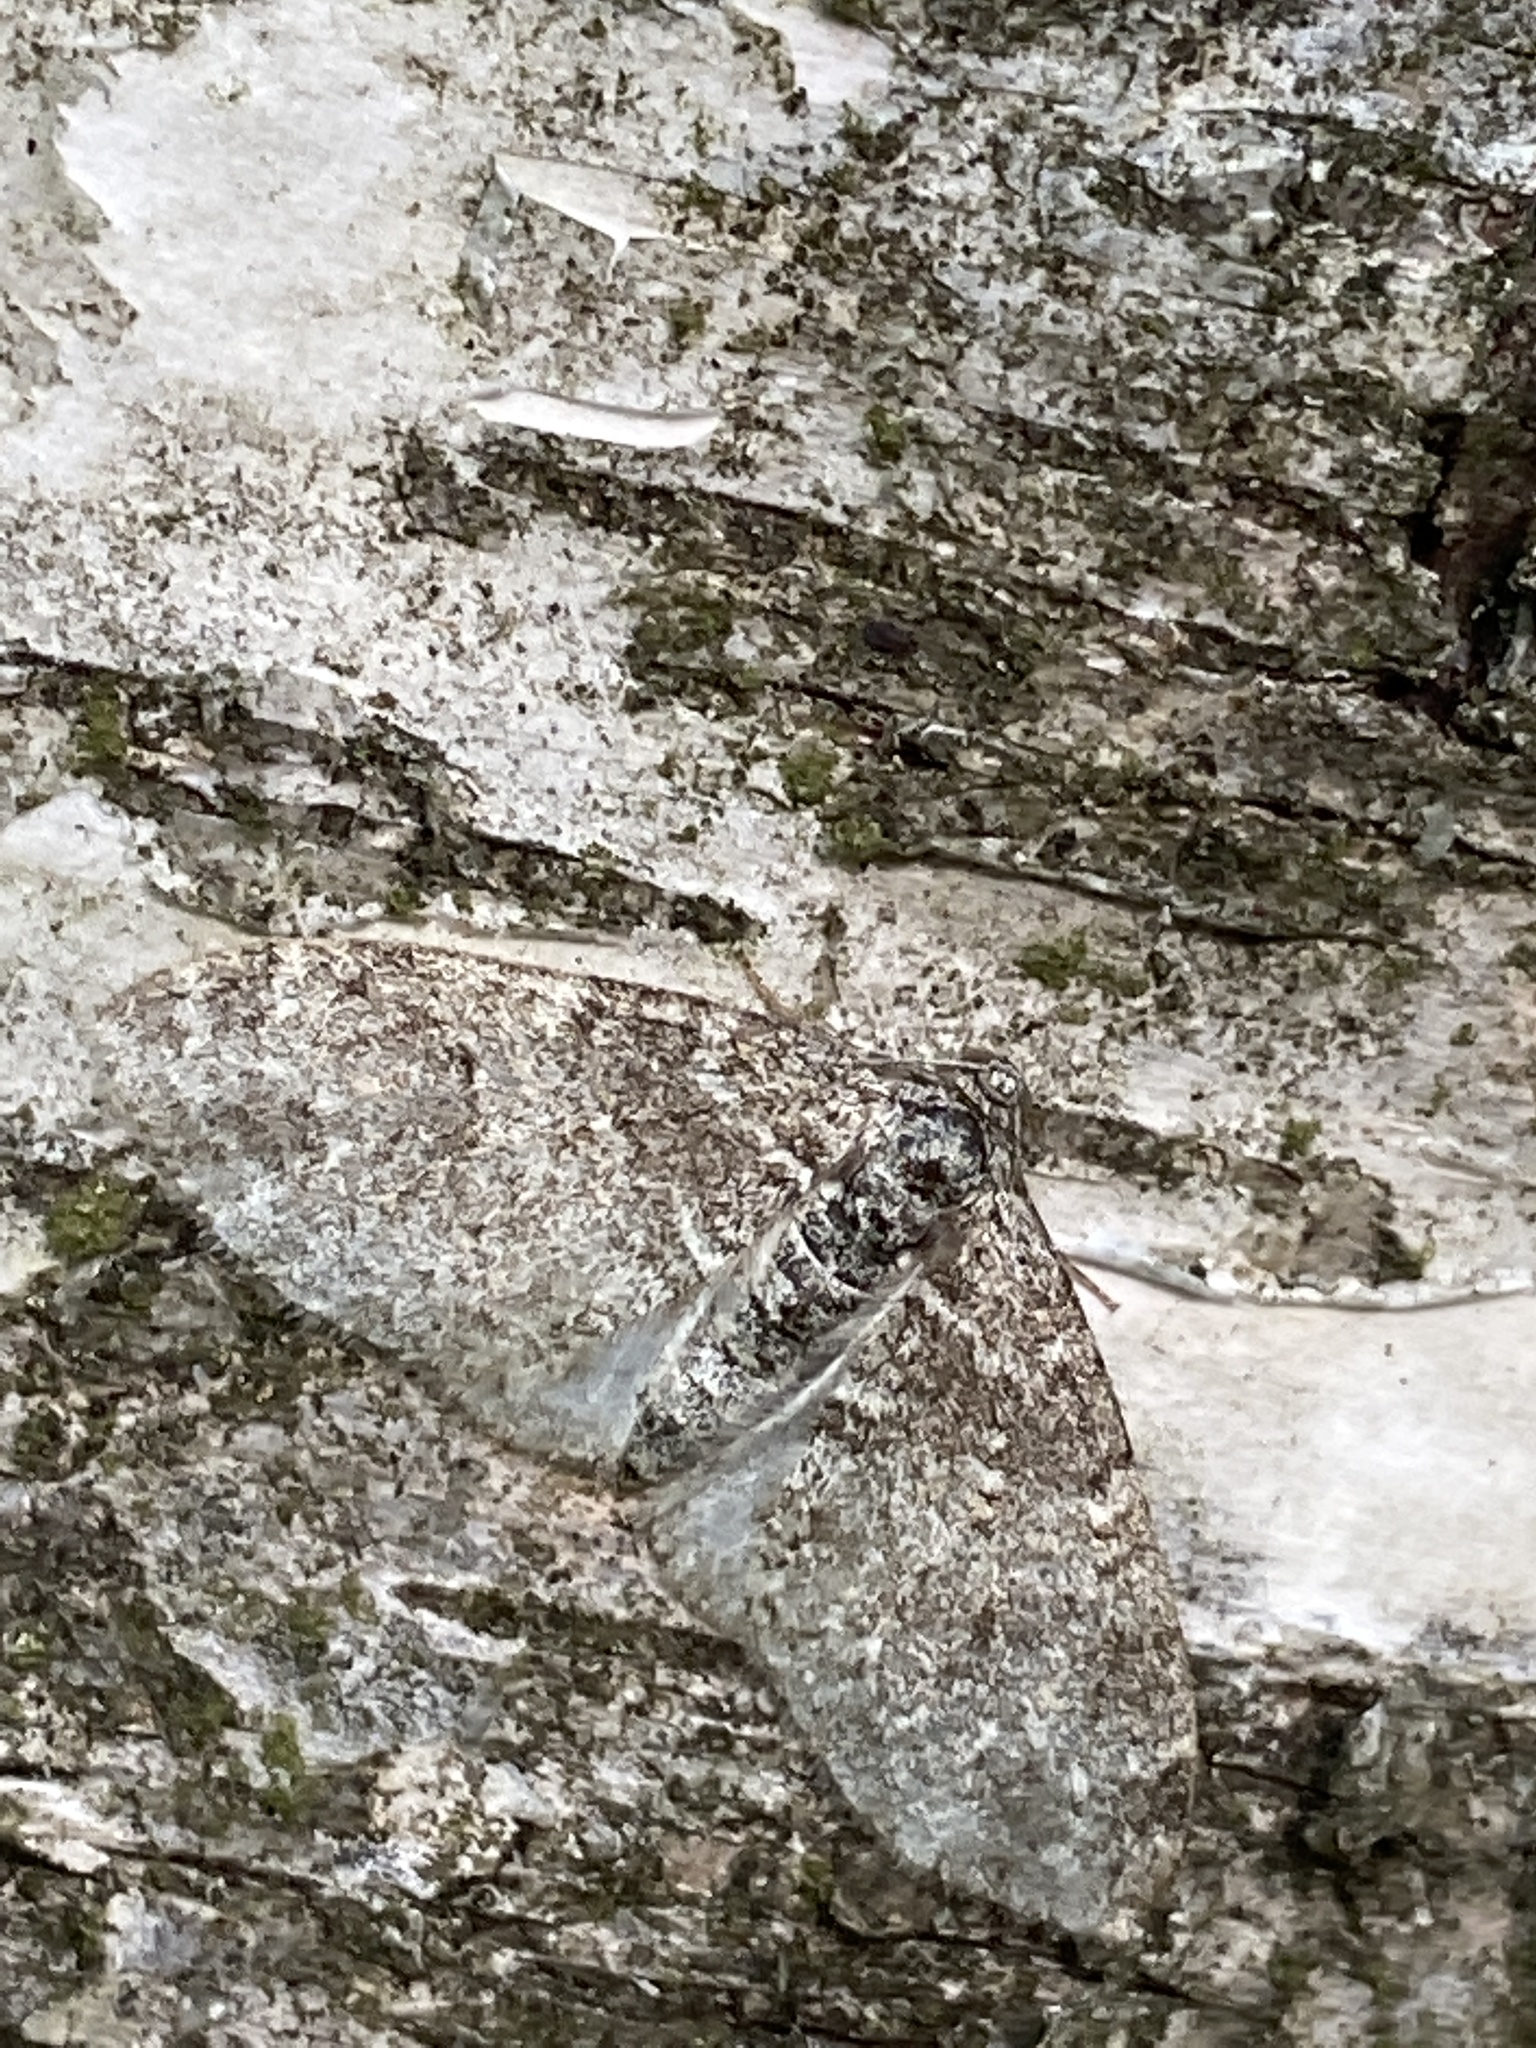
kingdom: Animalia
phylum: Arthropoda
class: Insecta
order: Lepidoptera
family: Geometridae
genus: Lobophora
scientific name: Lobophora halterata
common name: Seraphim
